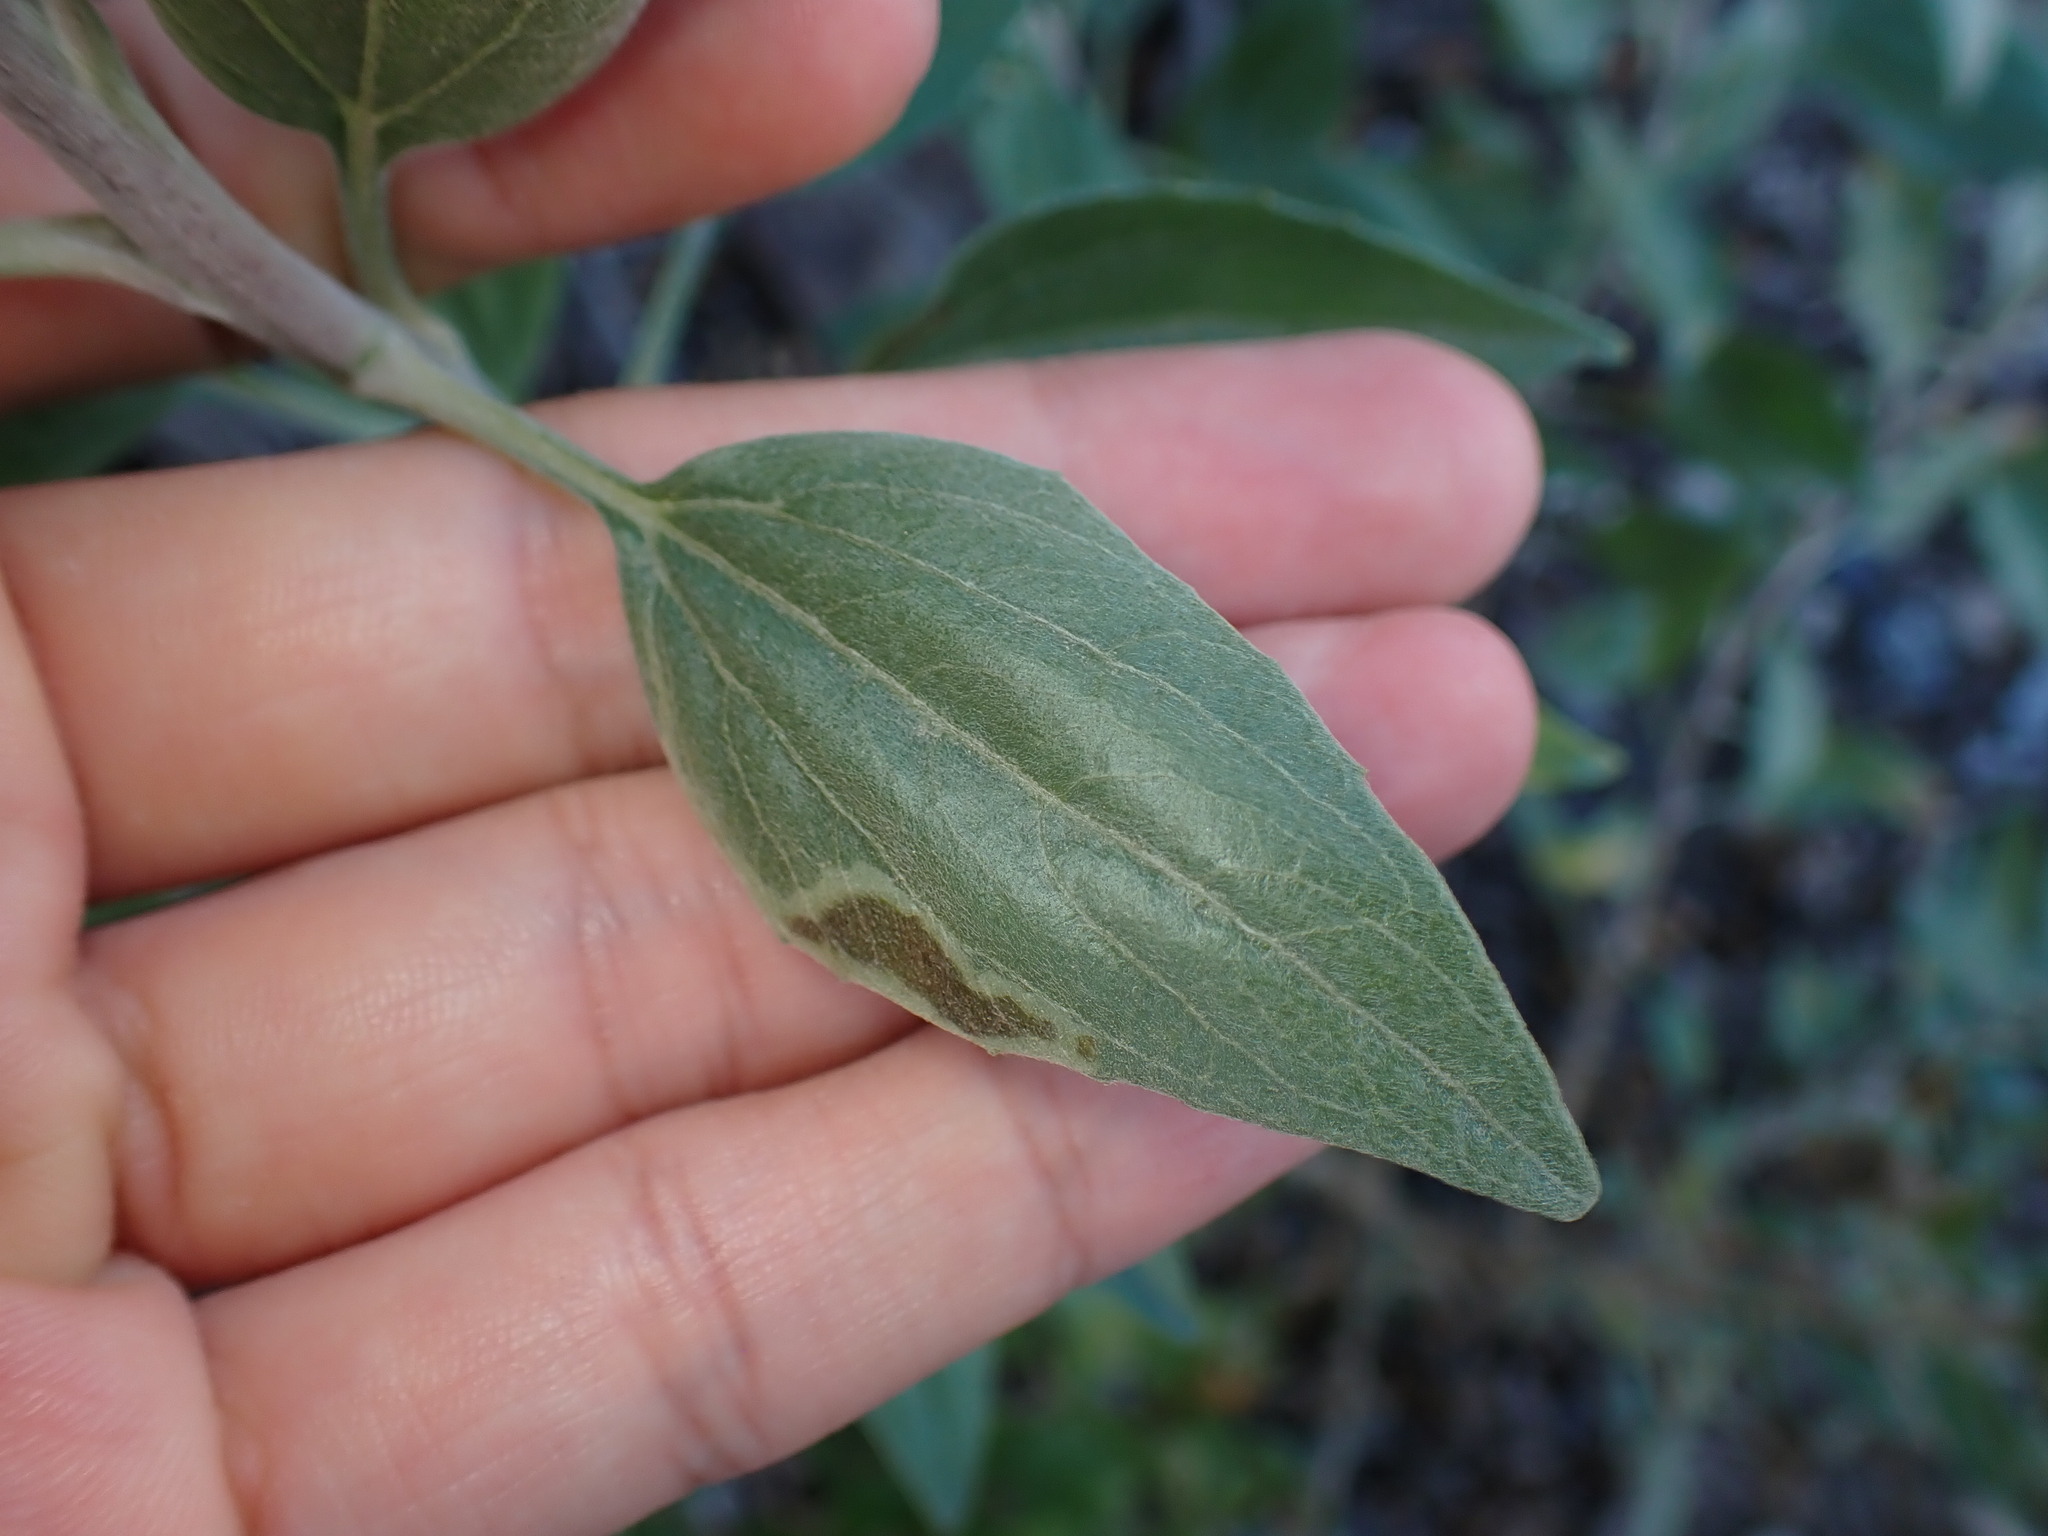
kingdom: Animalia
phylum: Arthropoda
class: Insecta
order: Diptera
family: Agromyzidae
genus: Calycomyza
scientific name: Calycomyza enceliae
